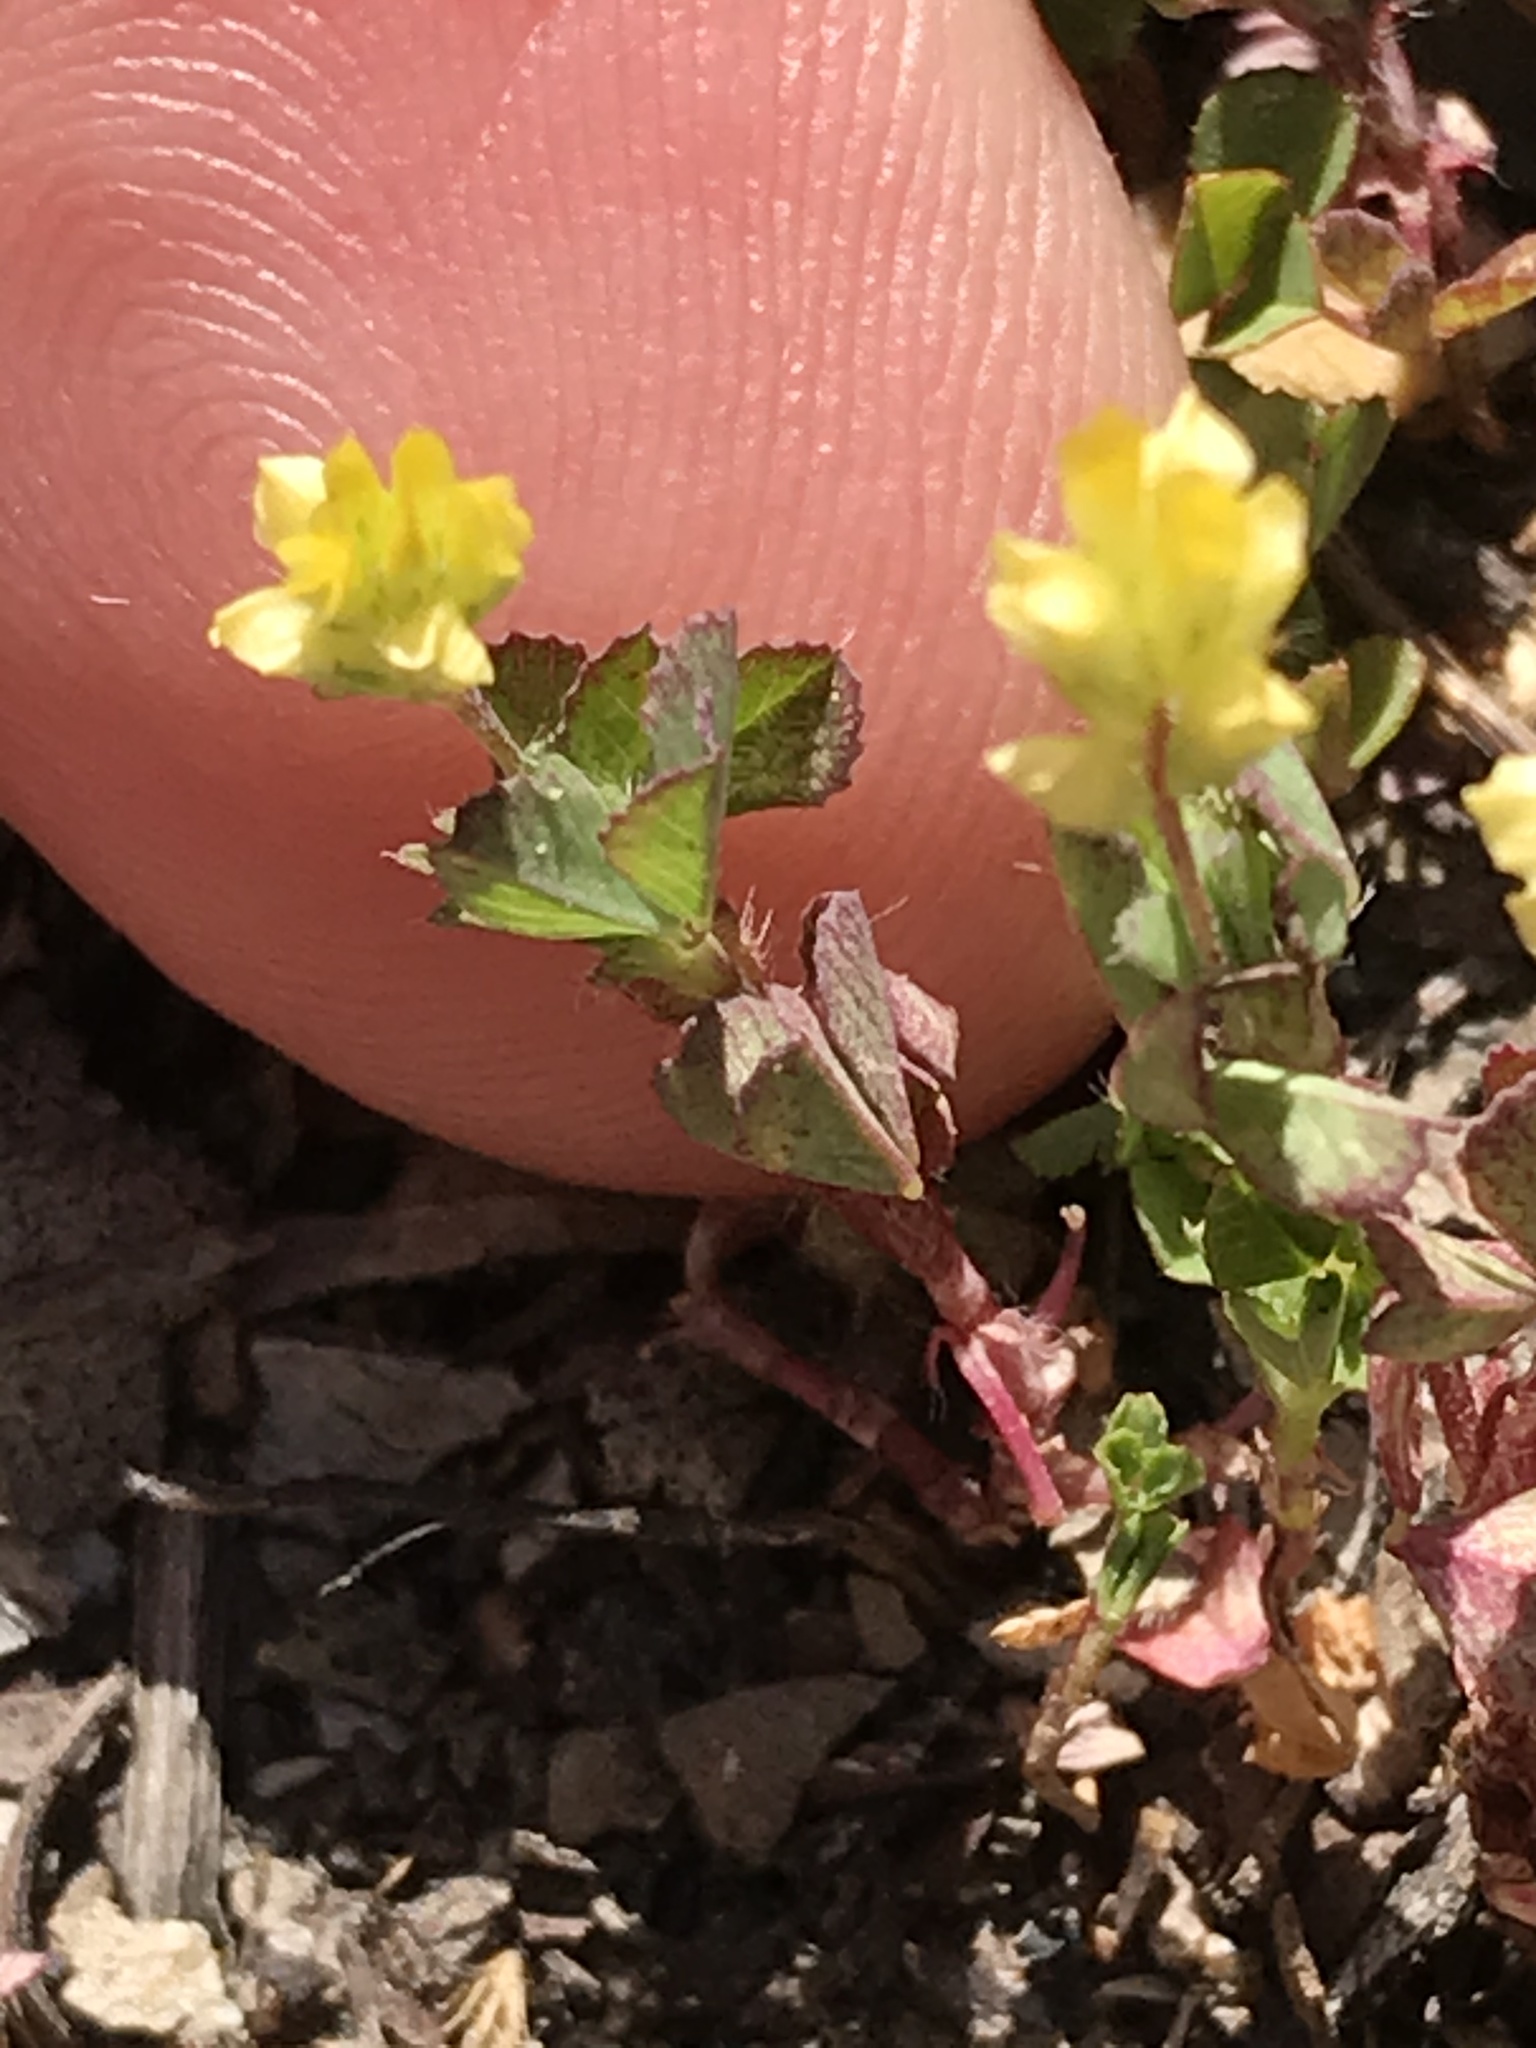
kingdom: Plantae
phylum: Tracheophyta
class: Magnoliopsida
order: Fabales
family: Fabaceae
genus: Trifolium
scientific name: Trifolium dubium
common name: Suckling clover
